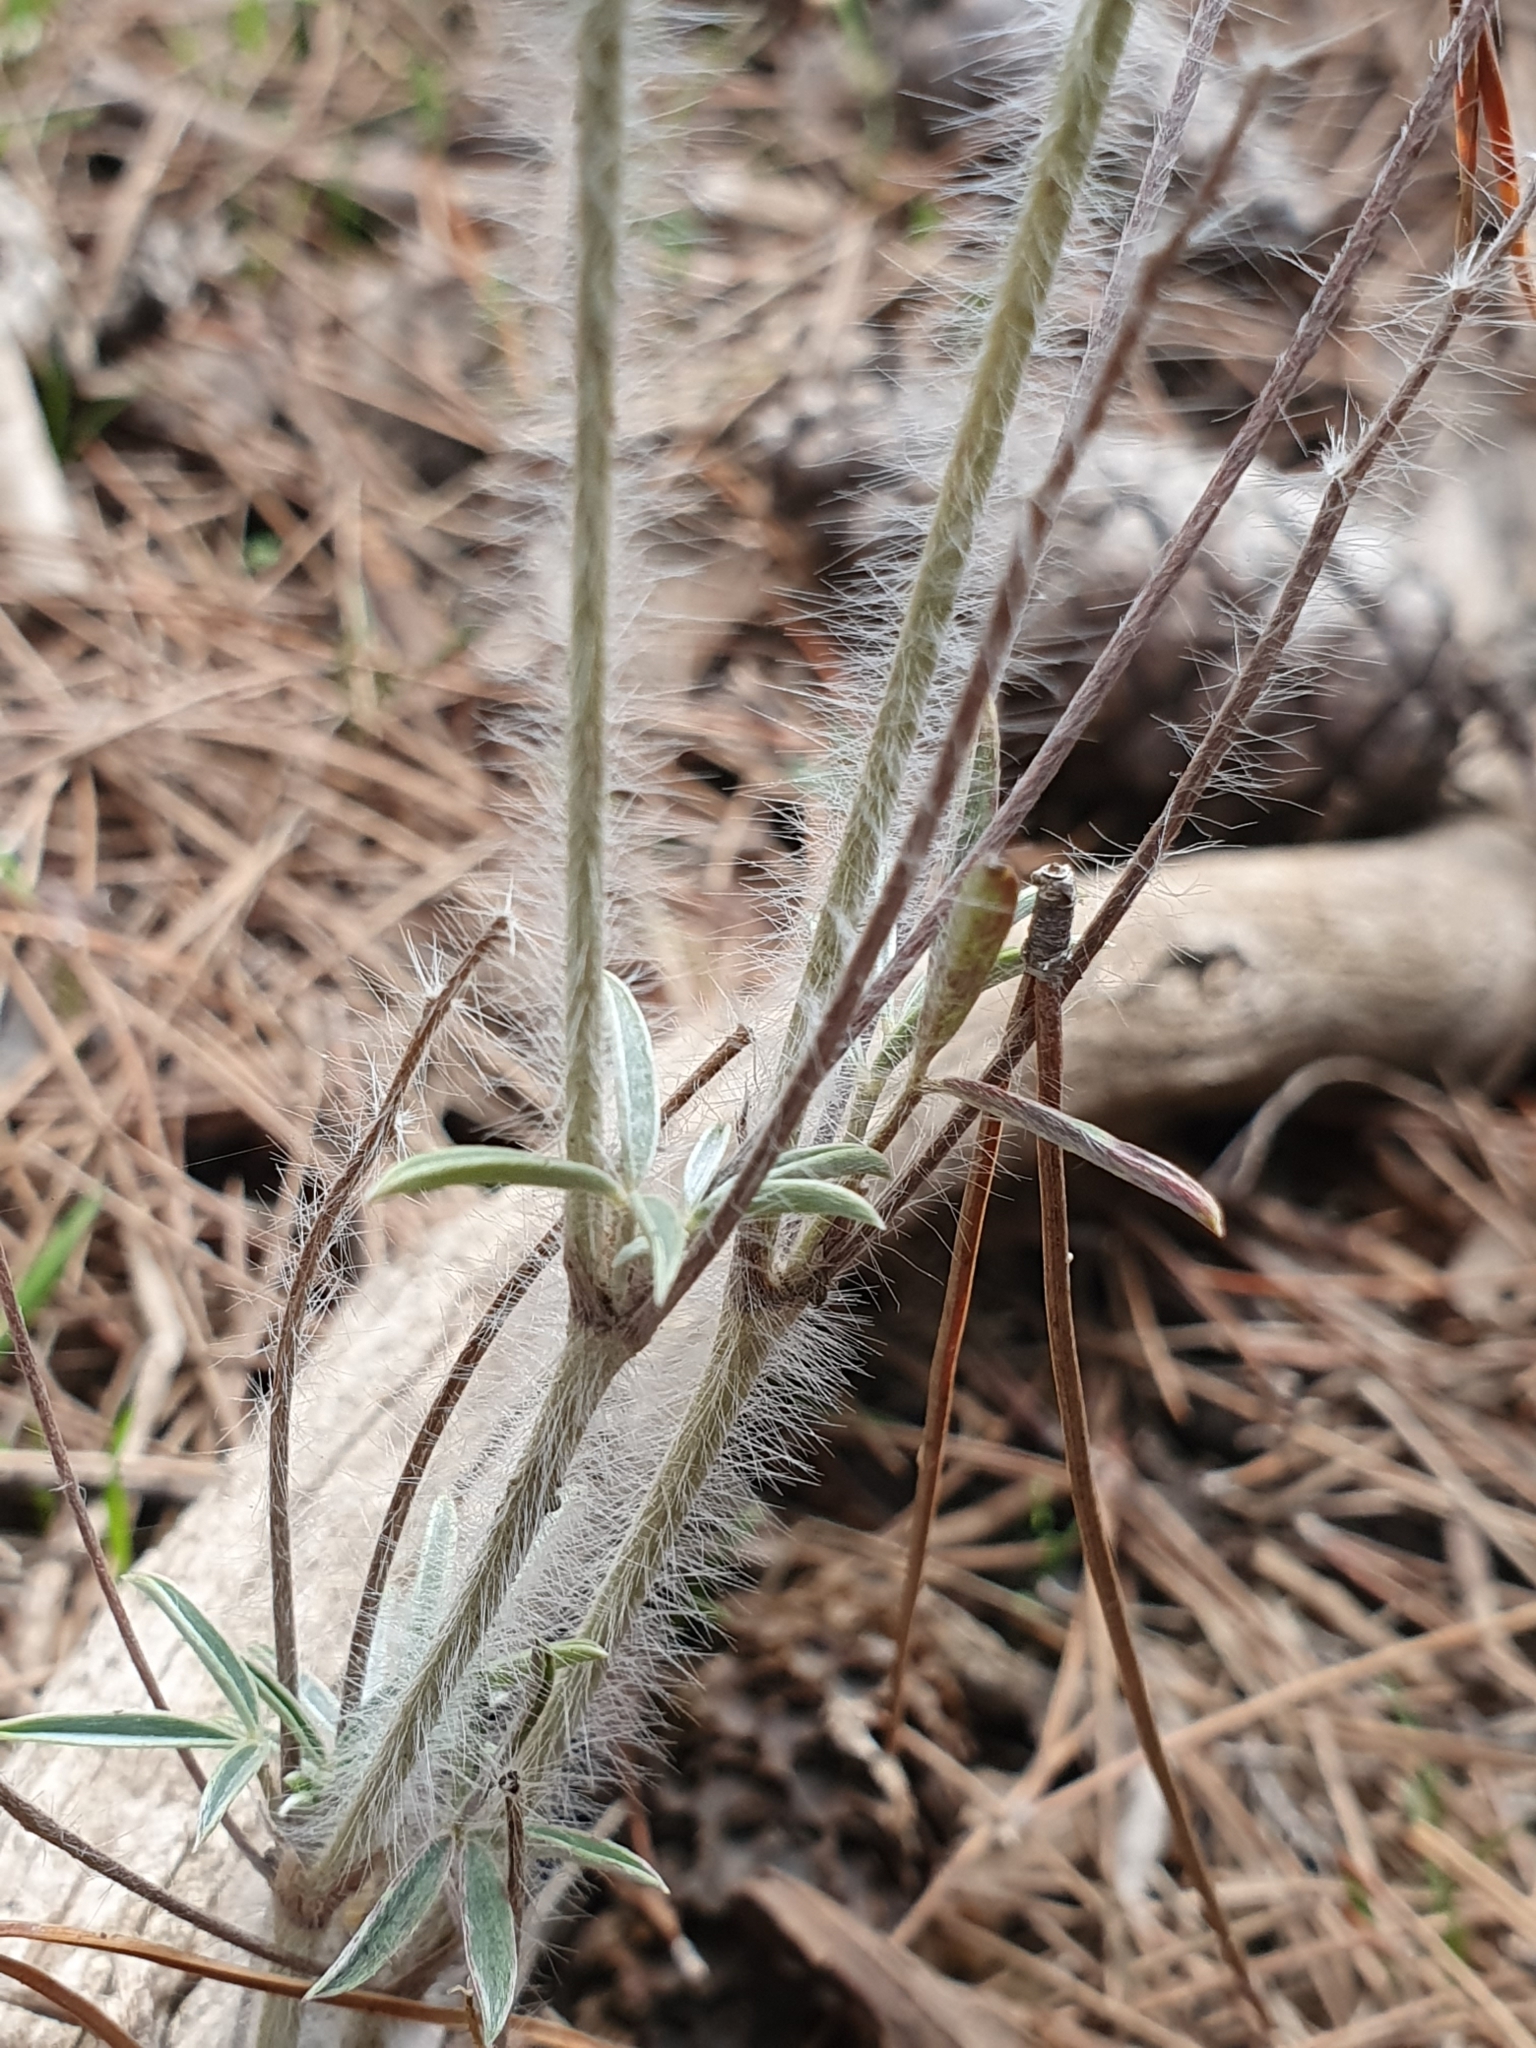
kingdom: Plantae
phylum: Tracheophyta
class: Magnoliopsida
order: Fabales
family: Fabaceae
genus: Ebenus
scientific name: Ebenus pinnata
